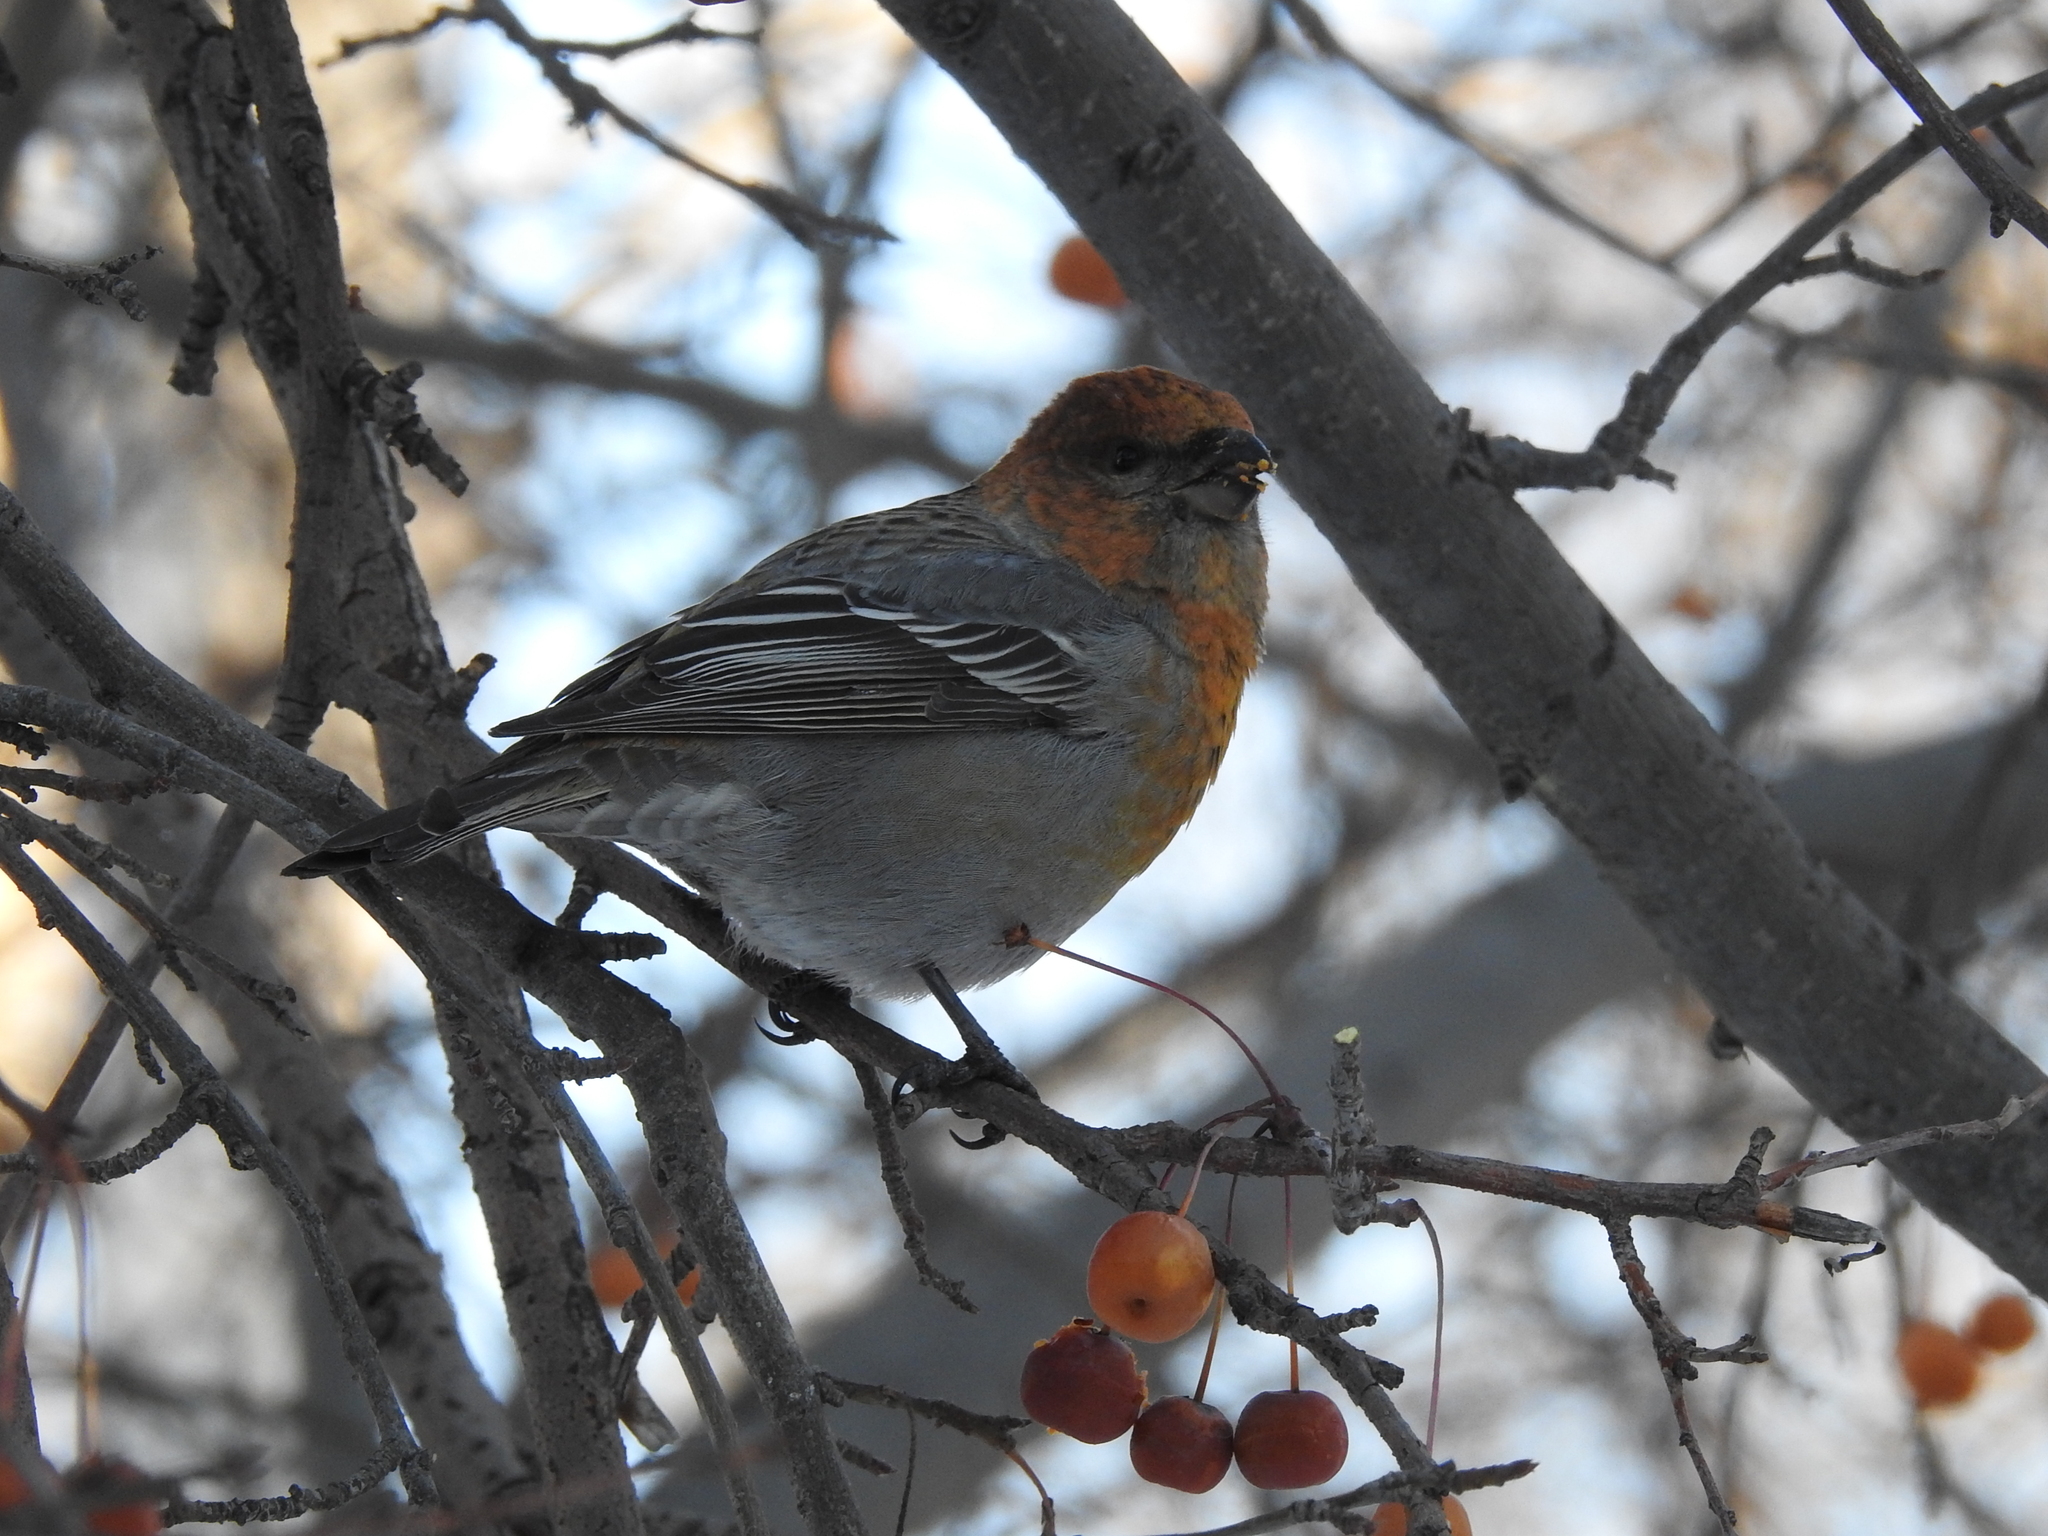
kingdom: Animalia
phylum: Chordata
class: Aves
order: Passeriformes
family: Fringillidae
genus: Pinicola
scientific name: Pinicola enucleator
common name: Pine grosbeak
